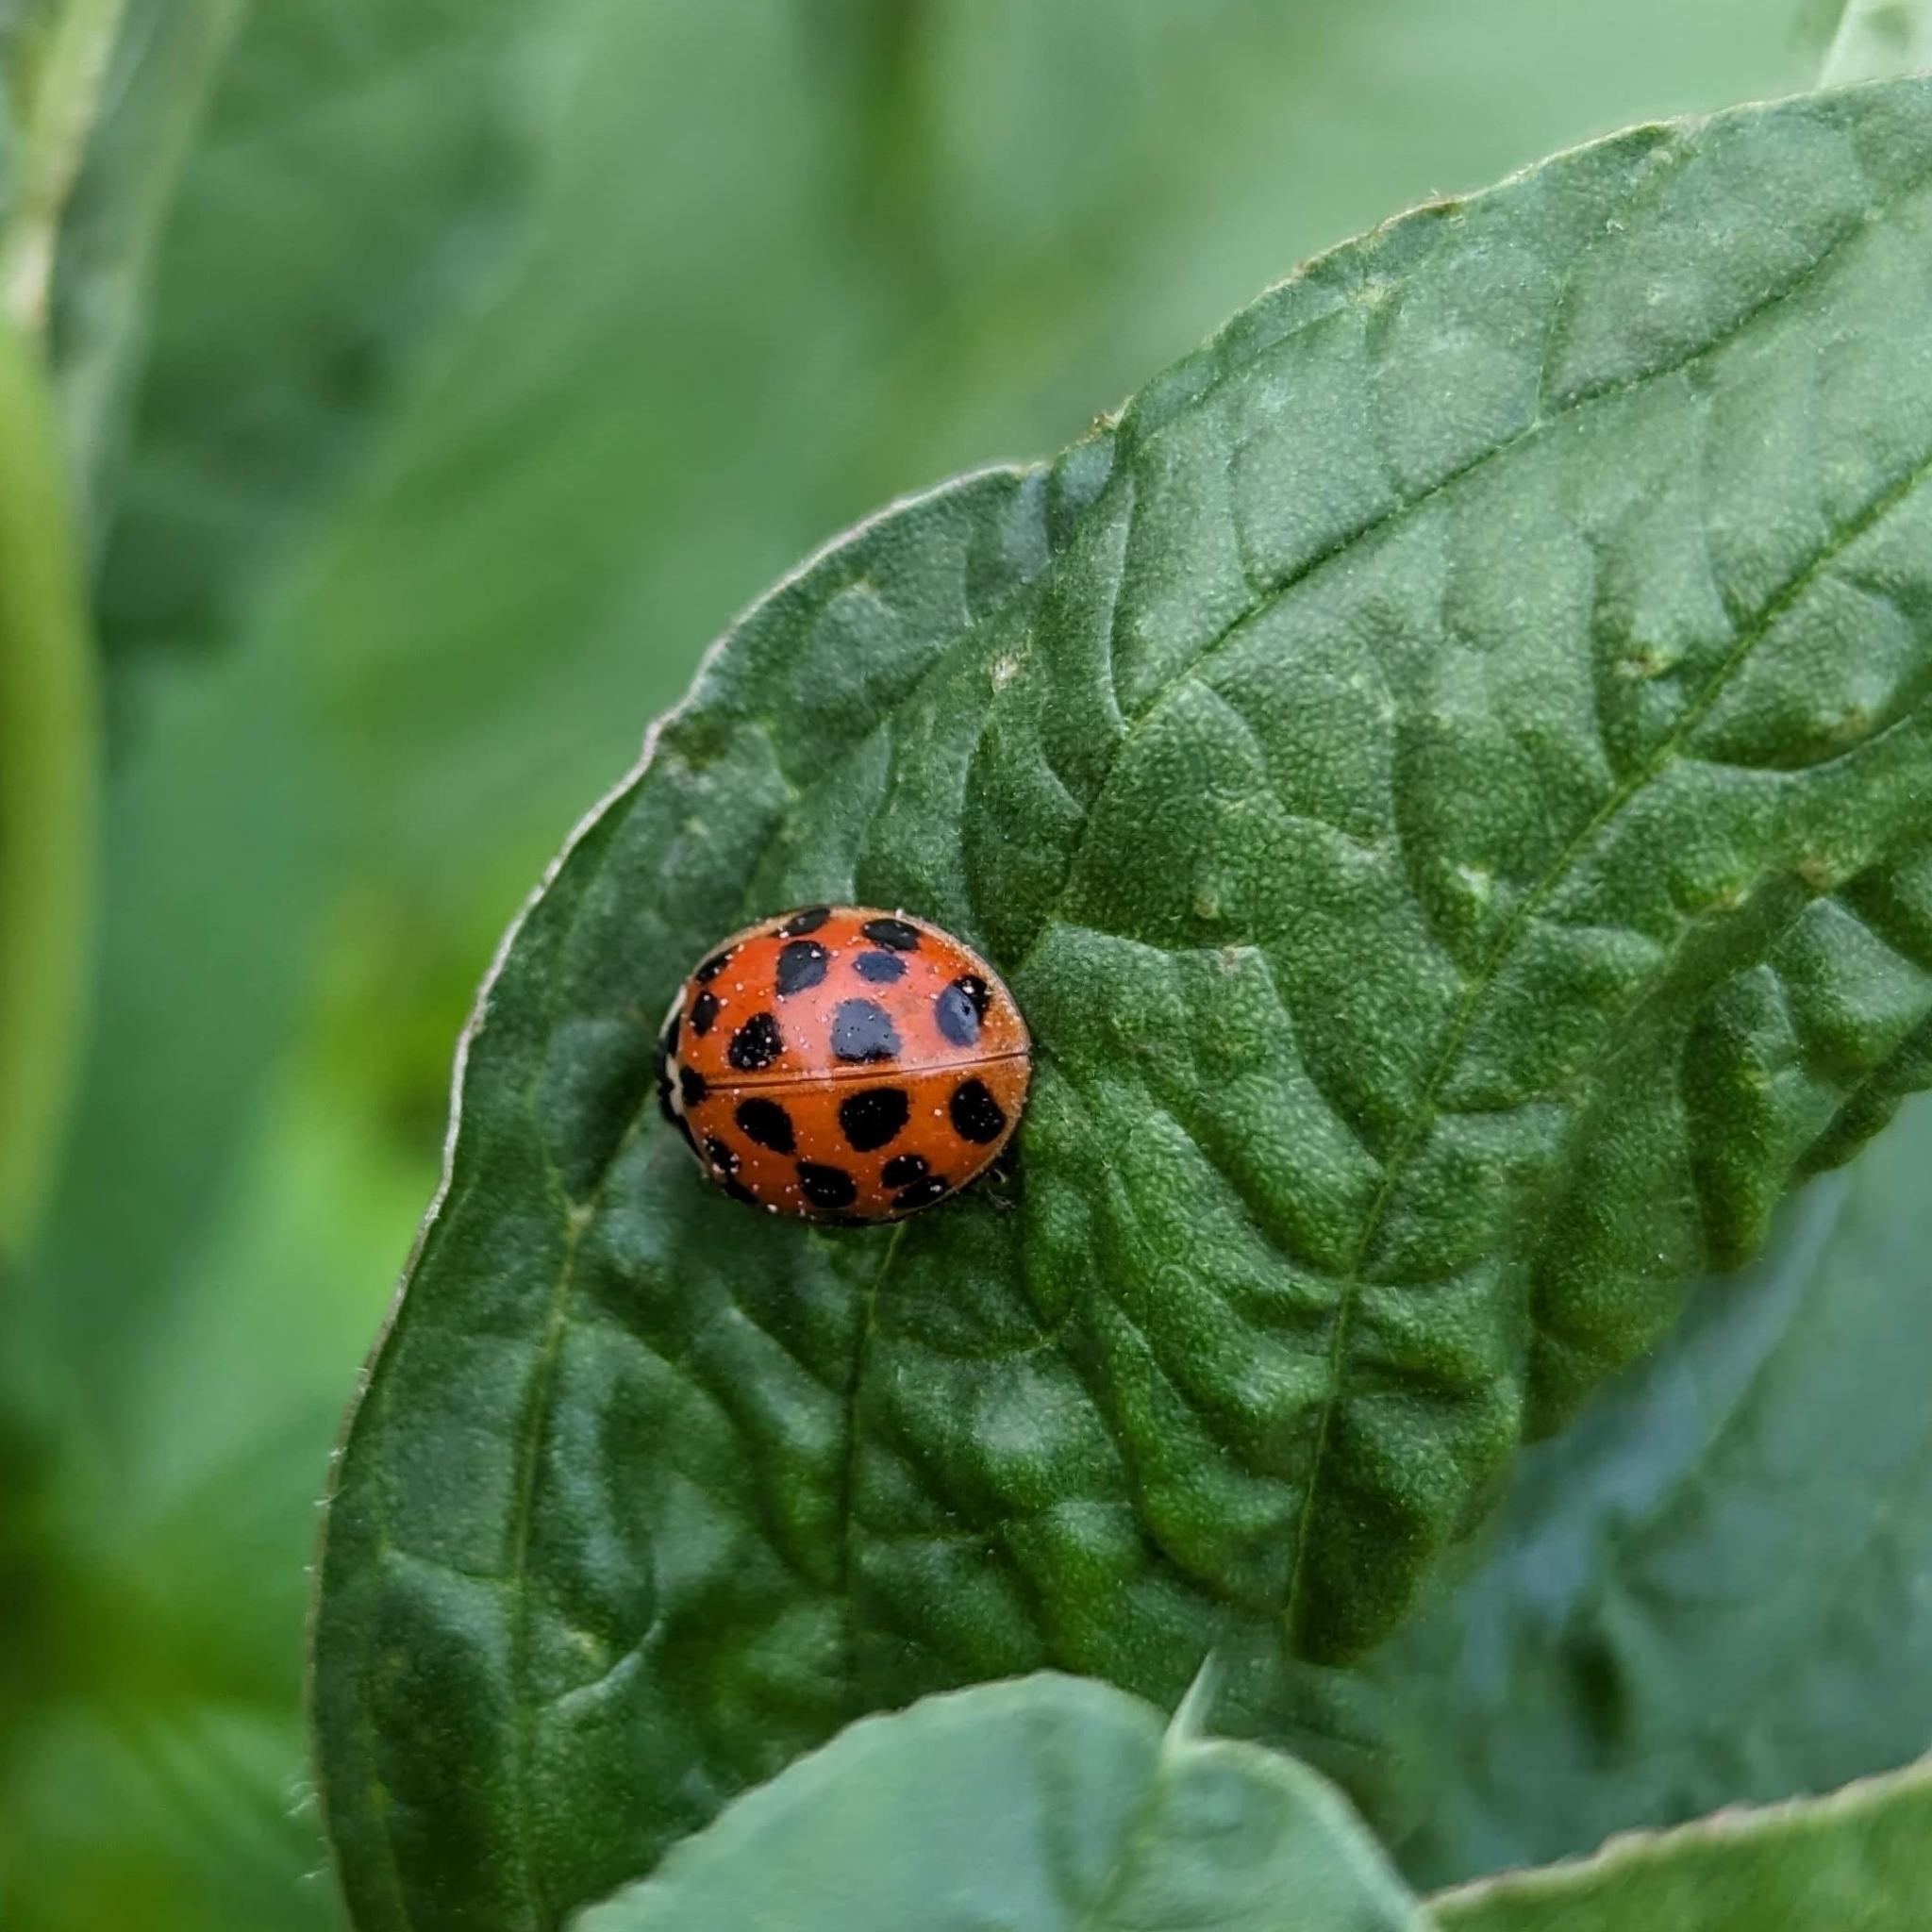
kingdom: Animalia
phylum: Arthropoda
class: Insecta
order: Coleoptera
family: Coccinellidae
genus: Harmonia
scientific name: Harmonia axyridis
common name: Harlequin ladybird
